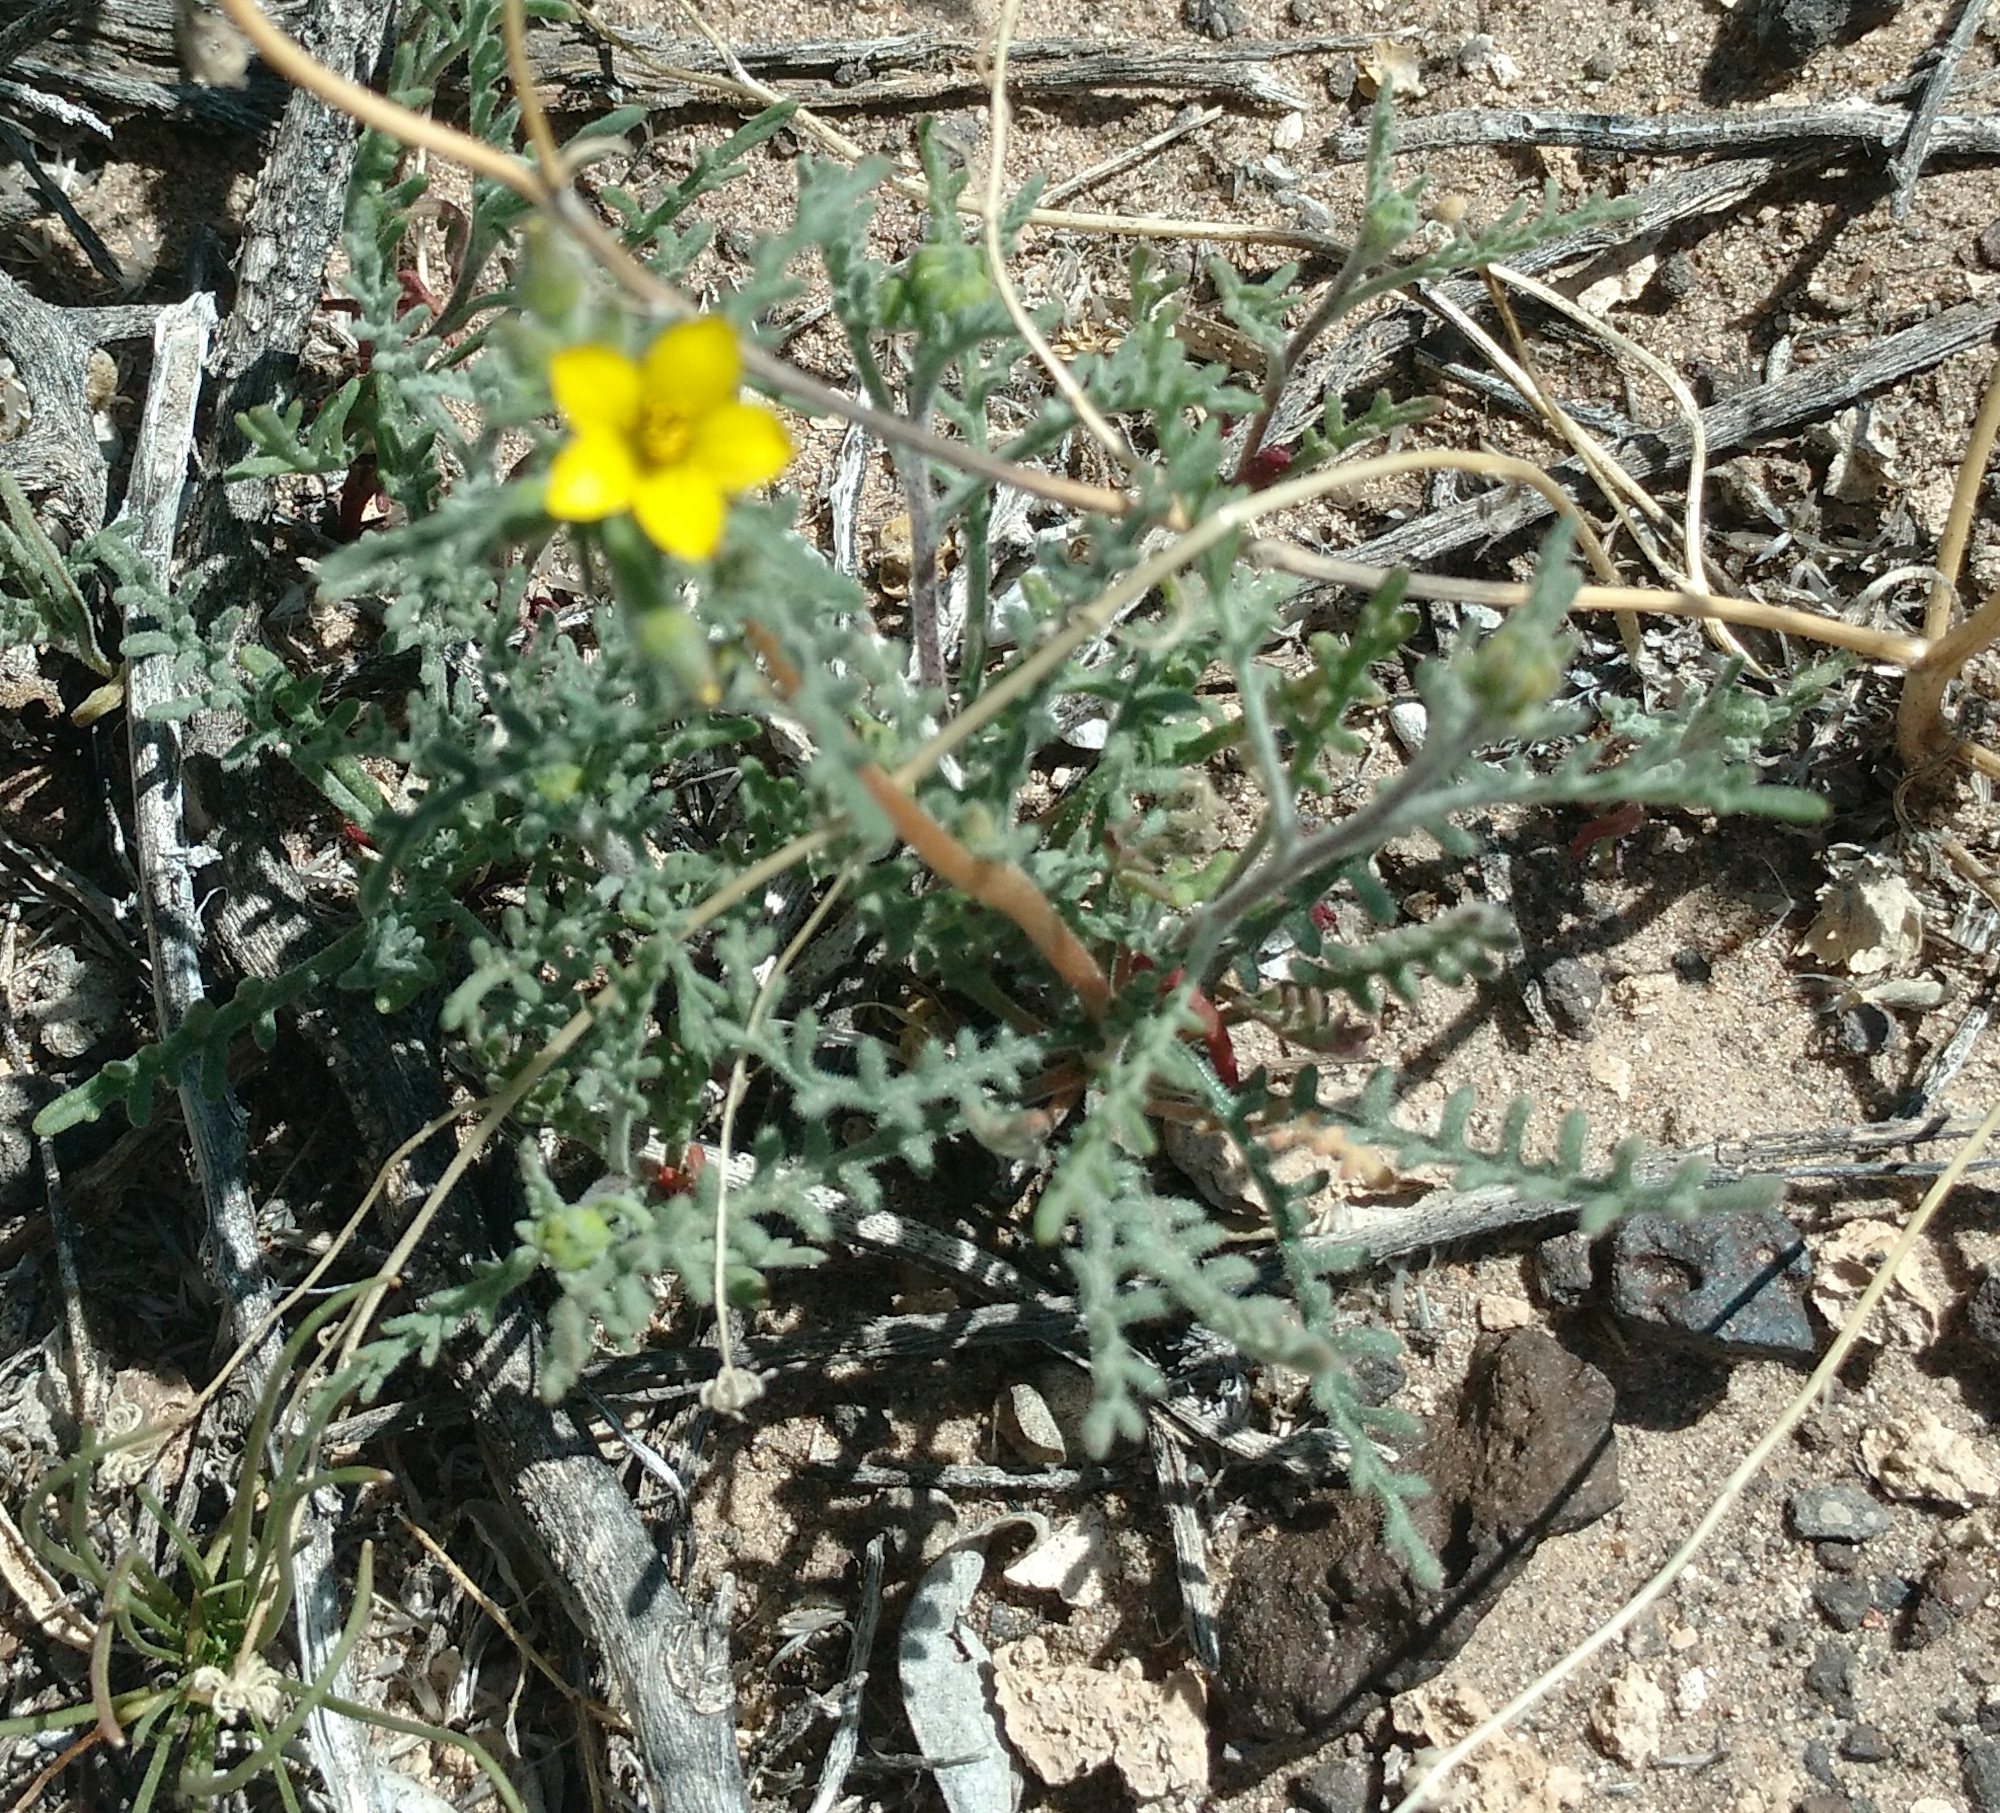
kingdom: Plantae
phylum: Tracheophyta
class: Magnoliopsida
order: Cornales
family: Loasaceae
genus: Mentzelia
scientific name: Mentzelia albicaulis
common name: White-stem blazingstar
